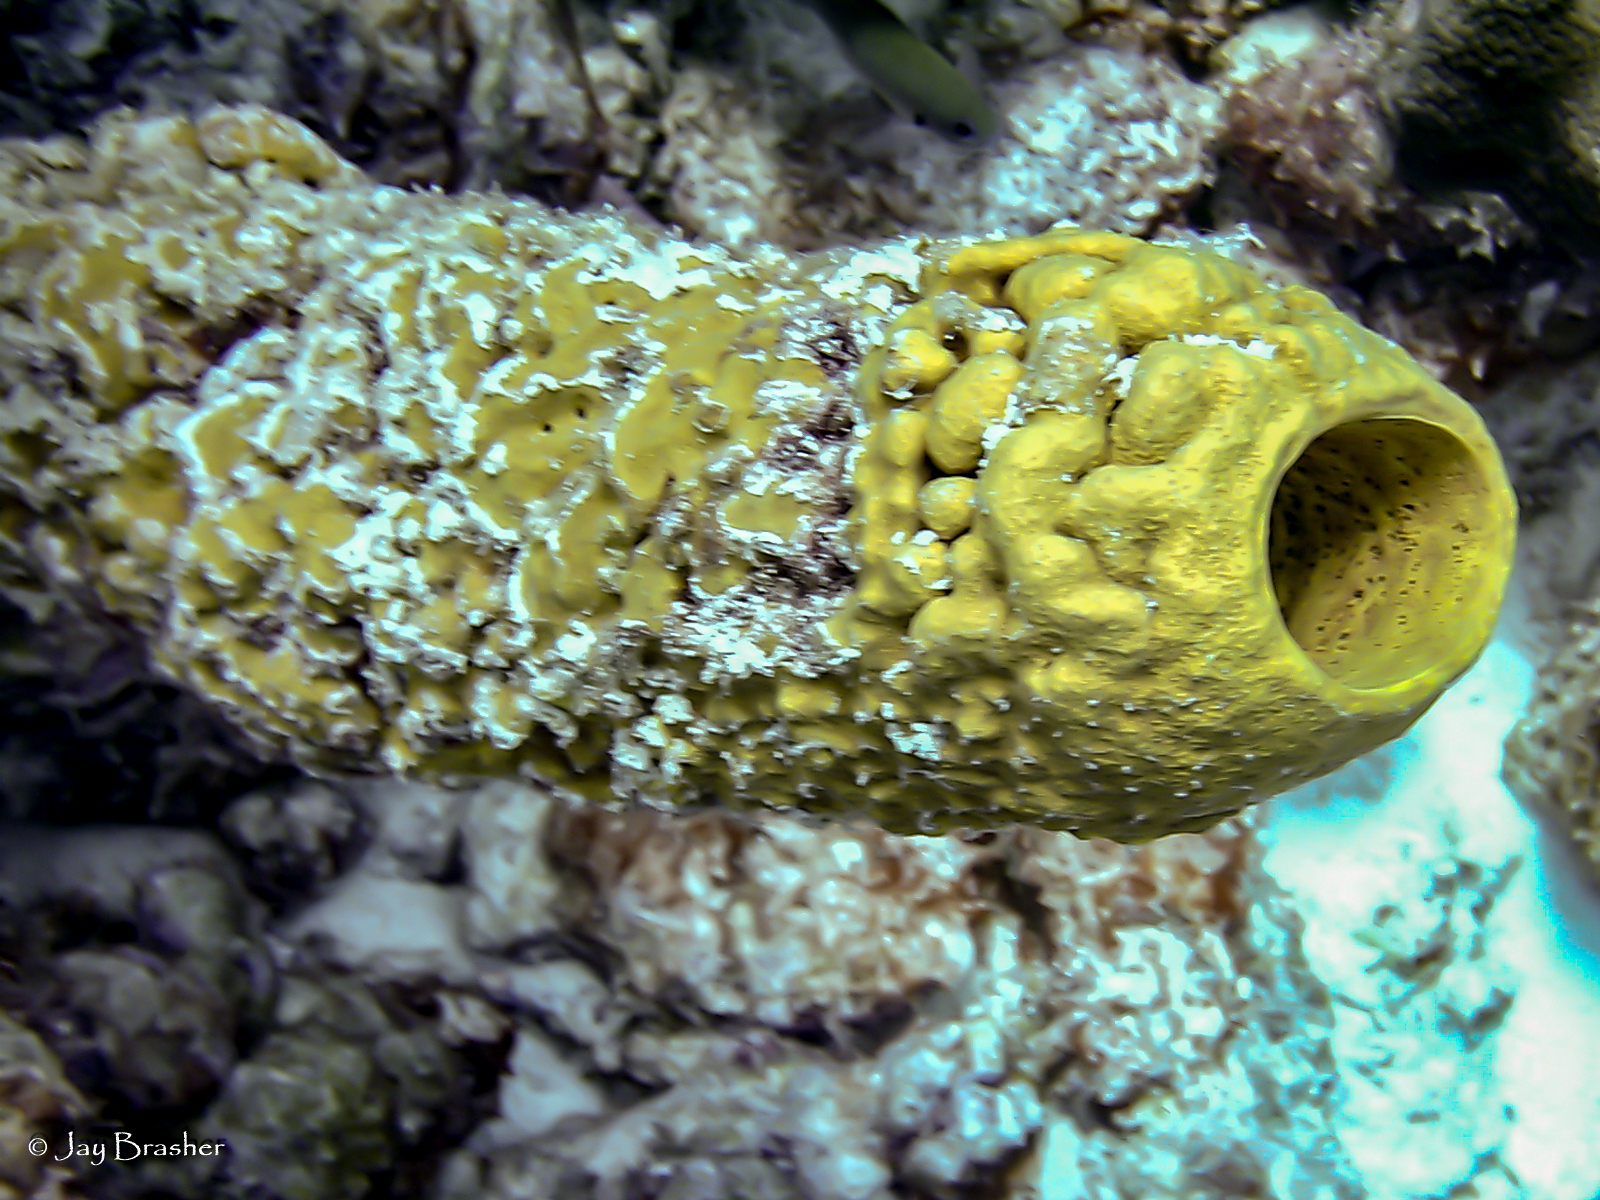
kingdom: Animalia
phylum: Porifera
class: Demospongiae
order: Verongiida
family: Aplysinidae
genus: Aplysina
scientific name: Aplysina archeri
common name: Stove-pipe sponge
